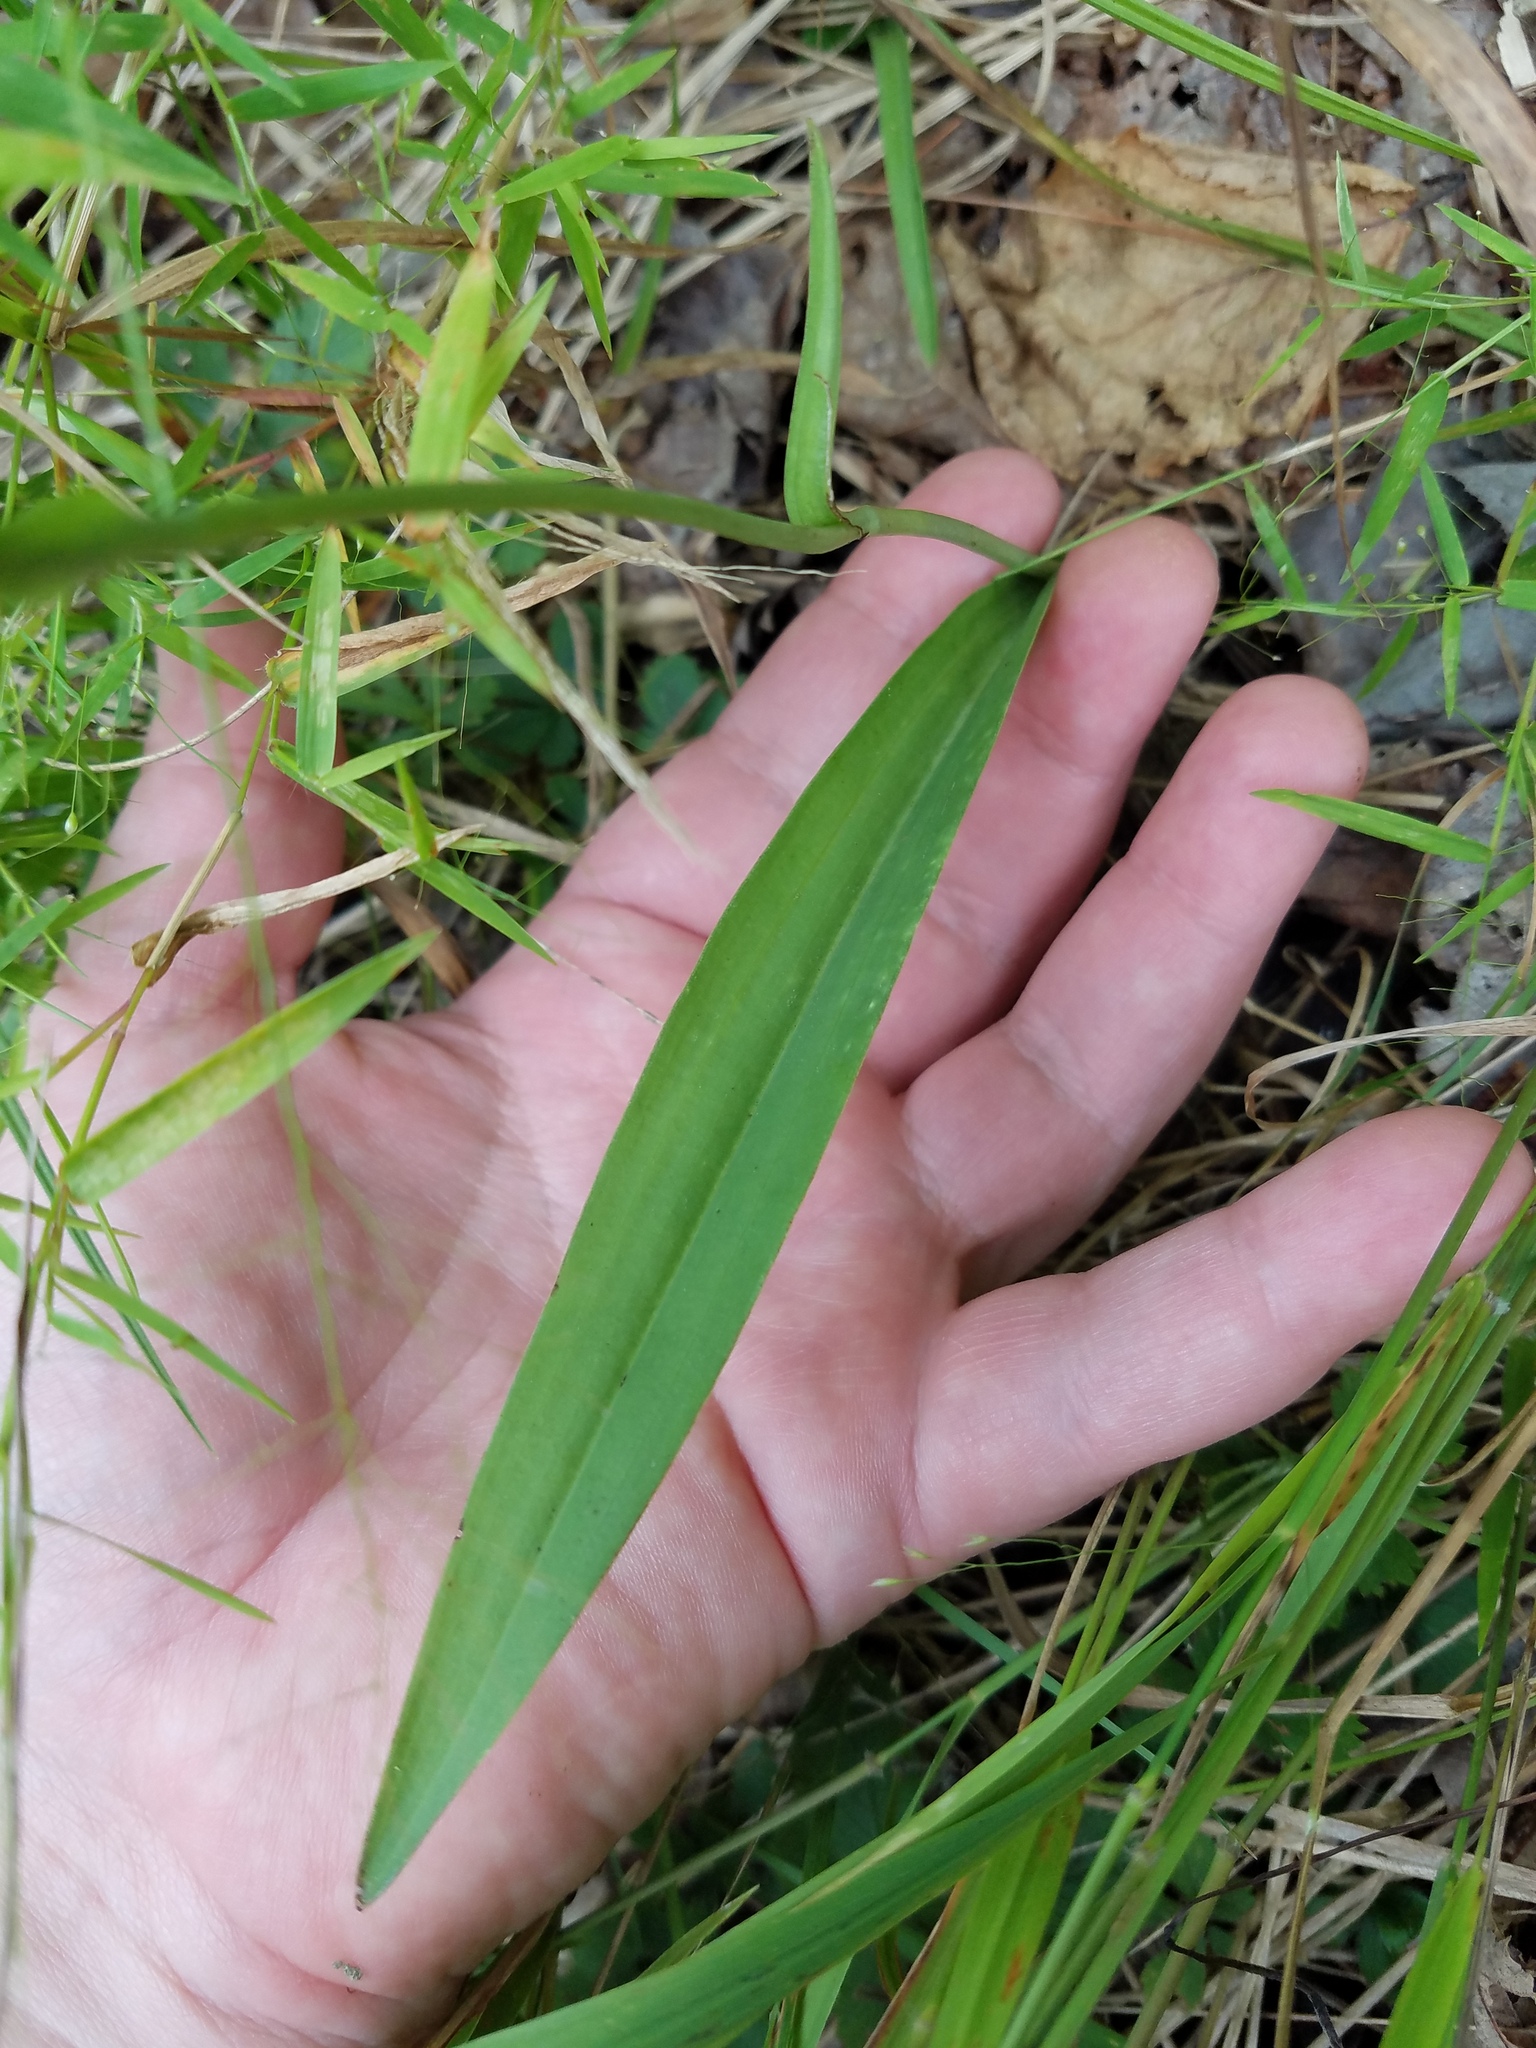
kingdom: Plantae
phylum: Tracheophyta
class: Liliopsida
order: Asparagales
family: Orchidaceae
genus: Platanthera
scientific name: Platanthera ciliaris
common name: Yellow fringed orchid
